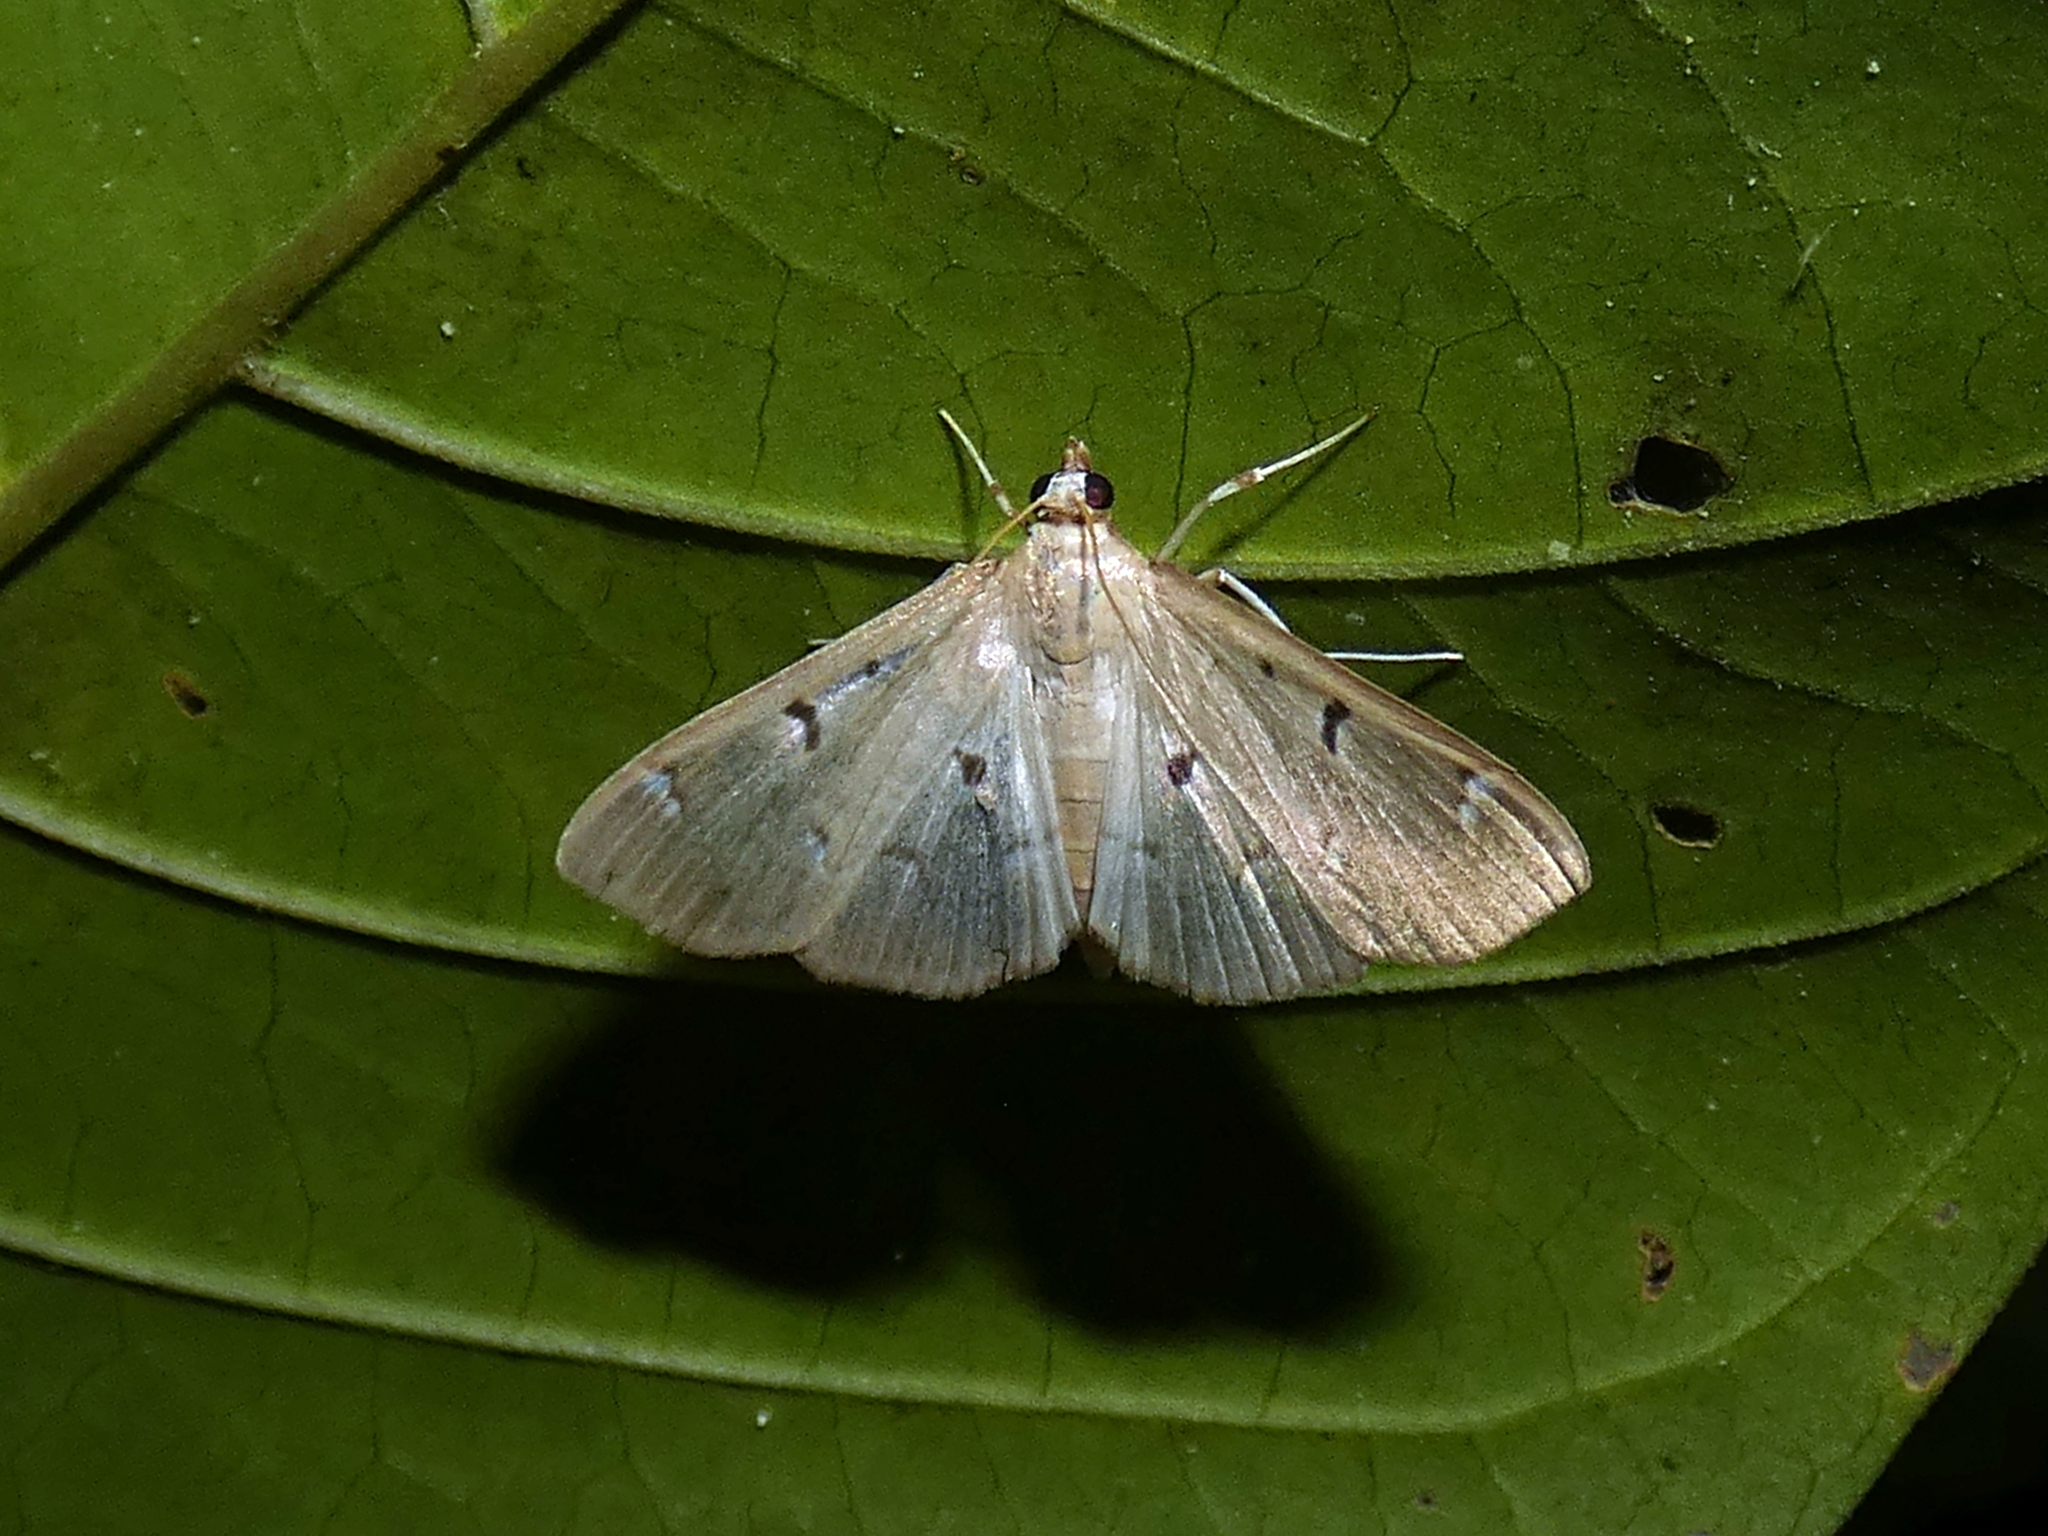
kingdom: Animalia
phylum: Arthropoda
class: Insecta
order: Lepidoptera
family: Crambidae
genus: Protonoceras
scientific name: Protonoceras eucosma
